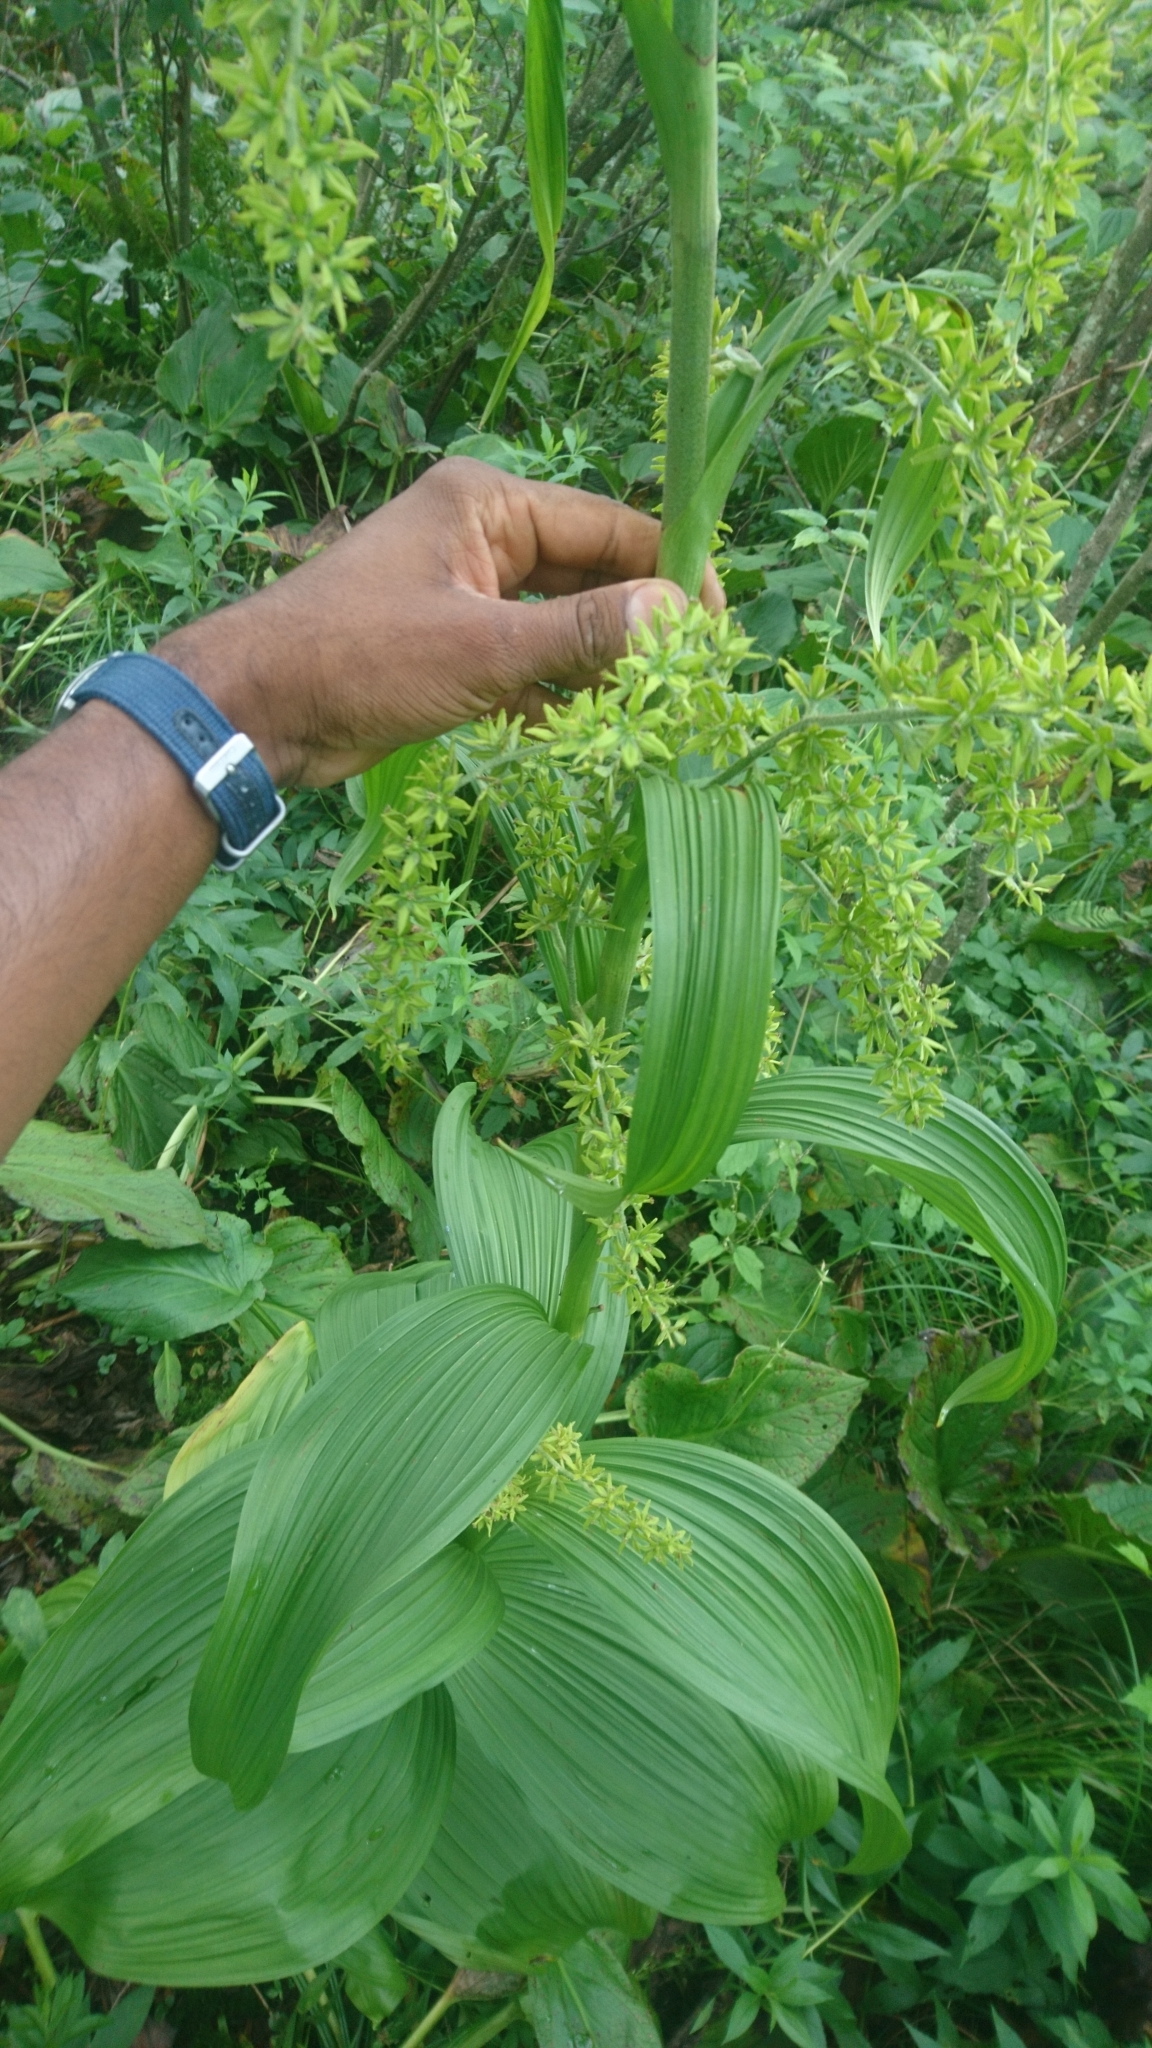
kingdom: Plantae
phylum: Tracheophyta
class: Liliopsida
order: Liliales
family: Melanthiaceae
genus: Veratrum
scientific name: Veratrum viride
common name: American false hellebore
